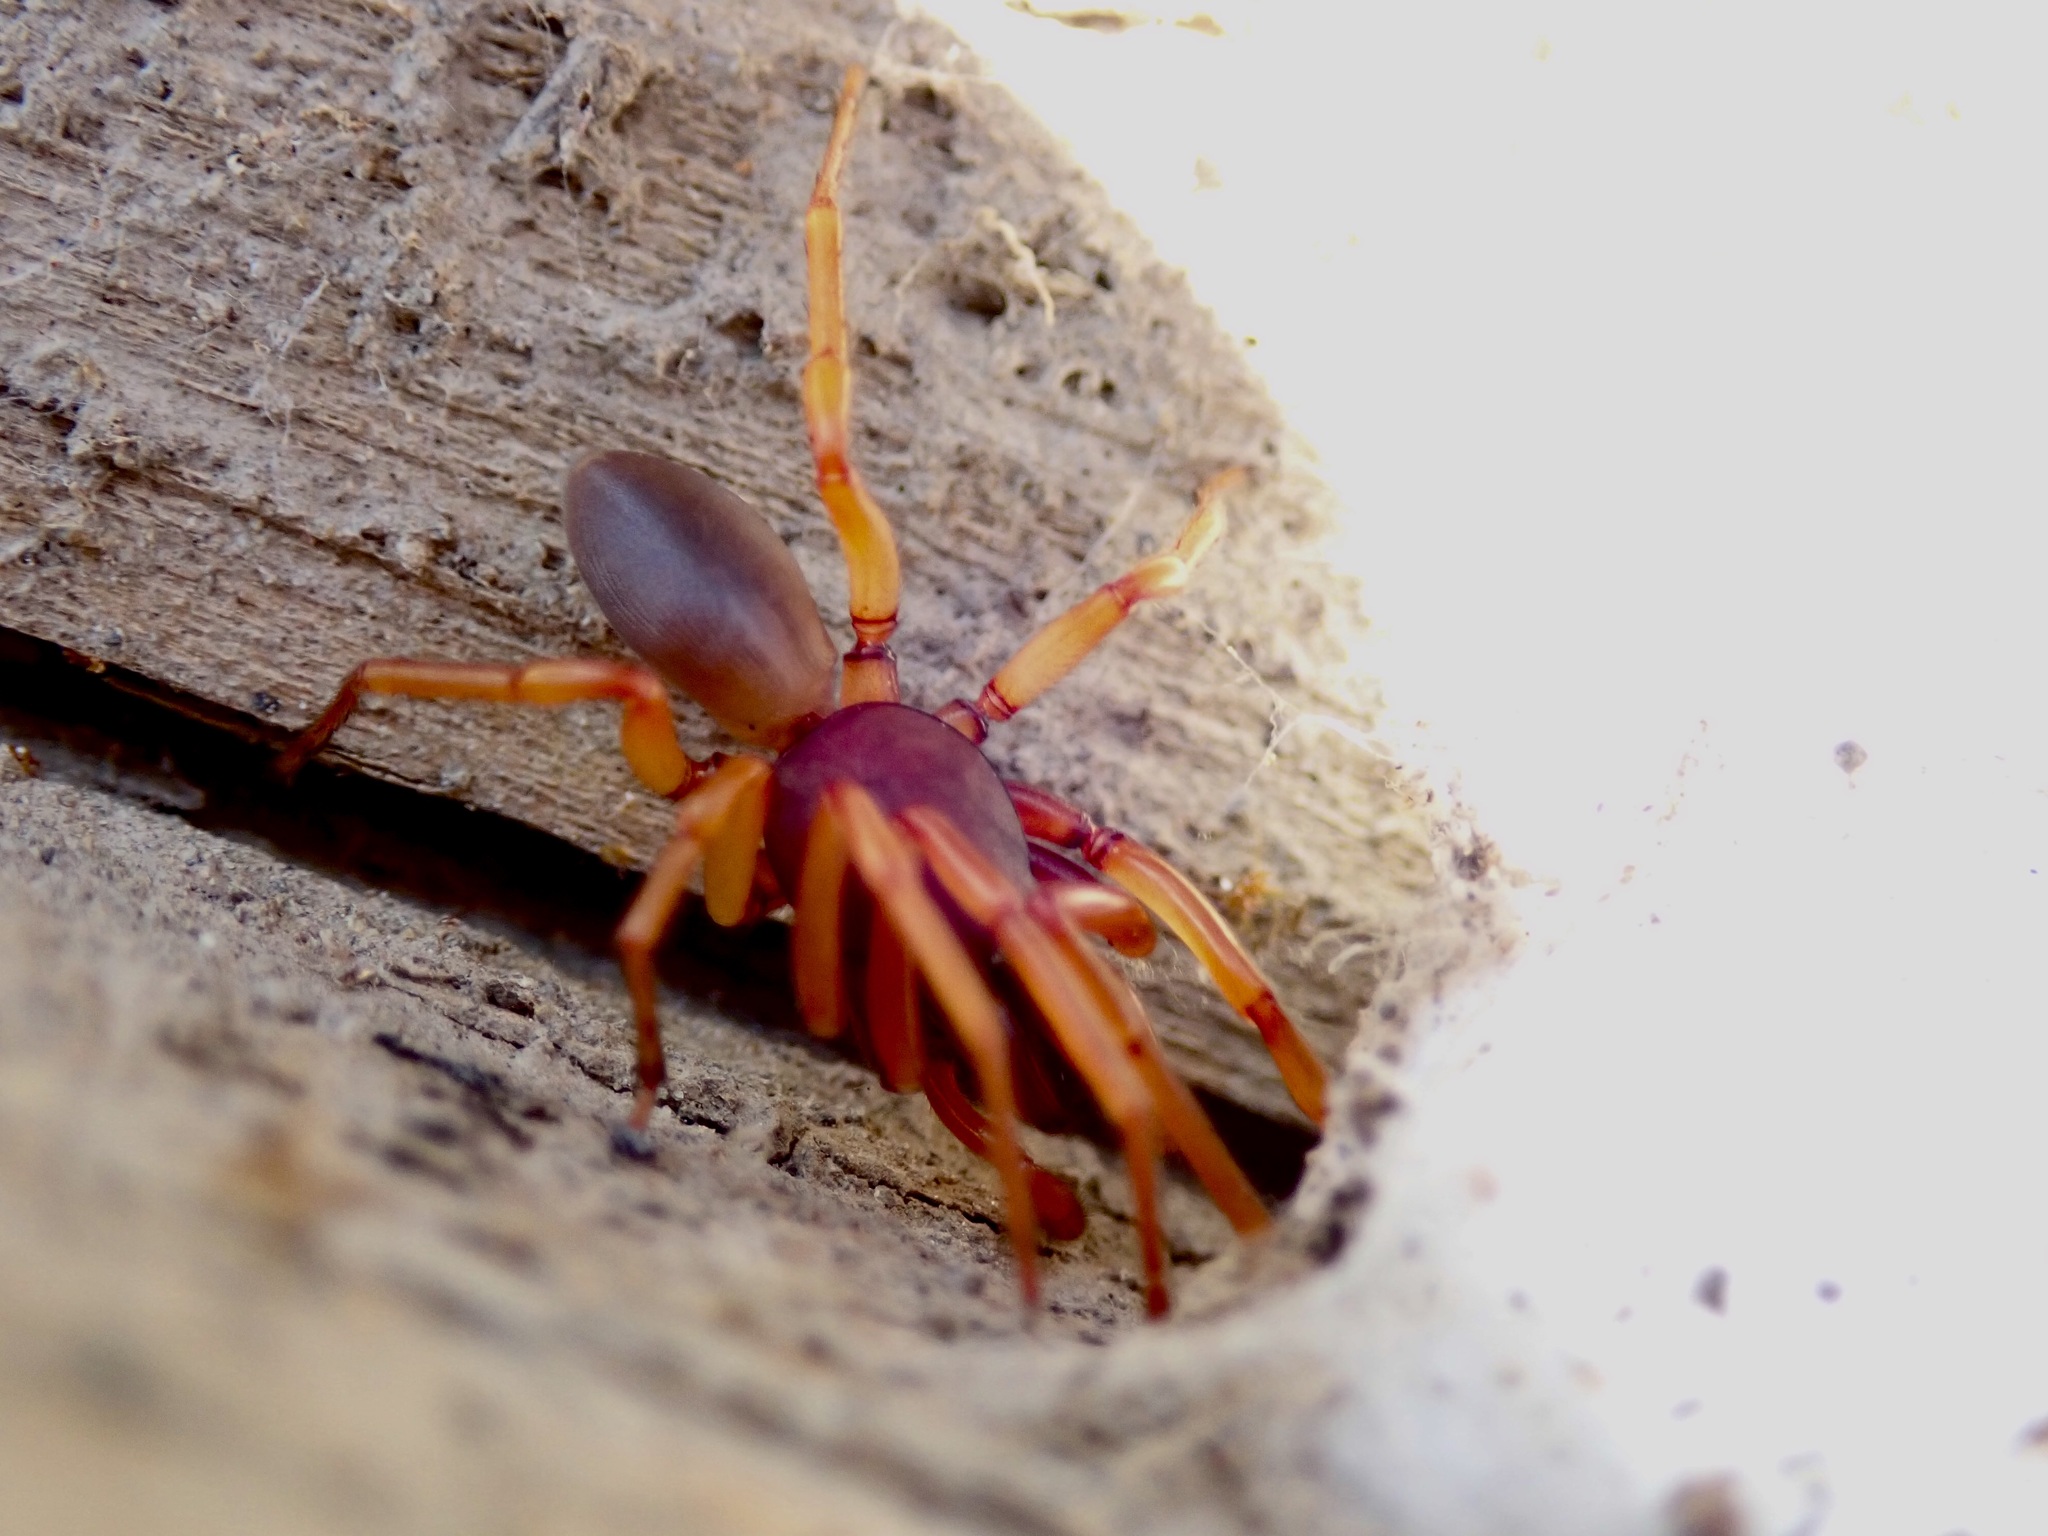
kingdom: Animalia
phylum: Arthropoda
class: Arachnida
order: Araneae
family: Dysderidae
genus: Dysdera
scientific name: Dysdera crocata
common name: Woodlouse spider
